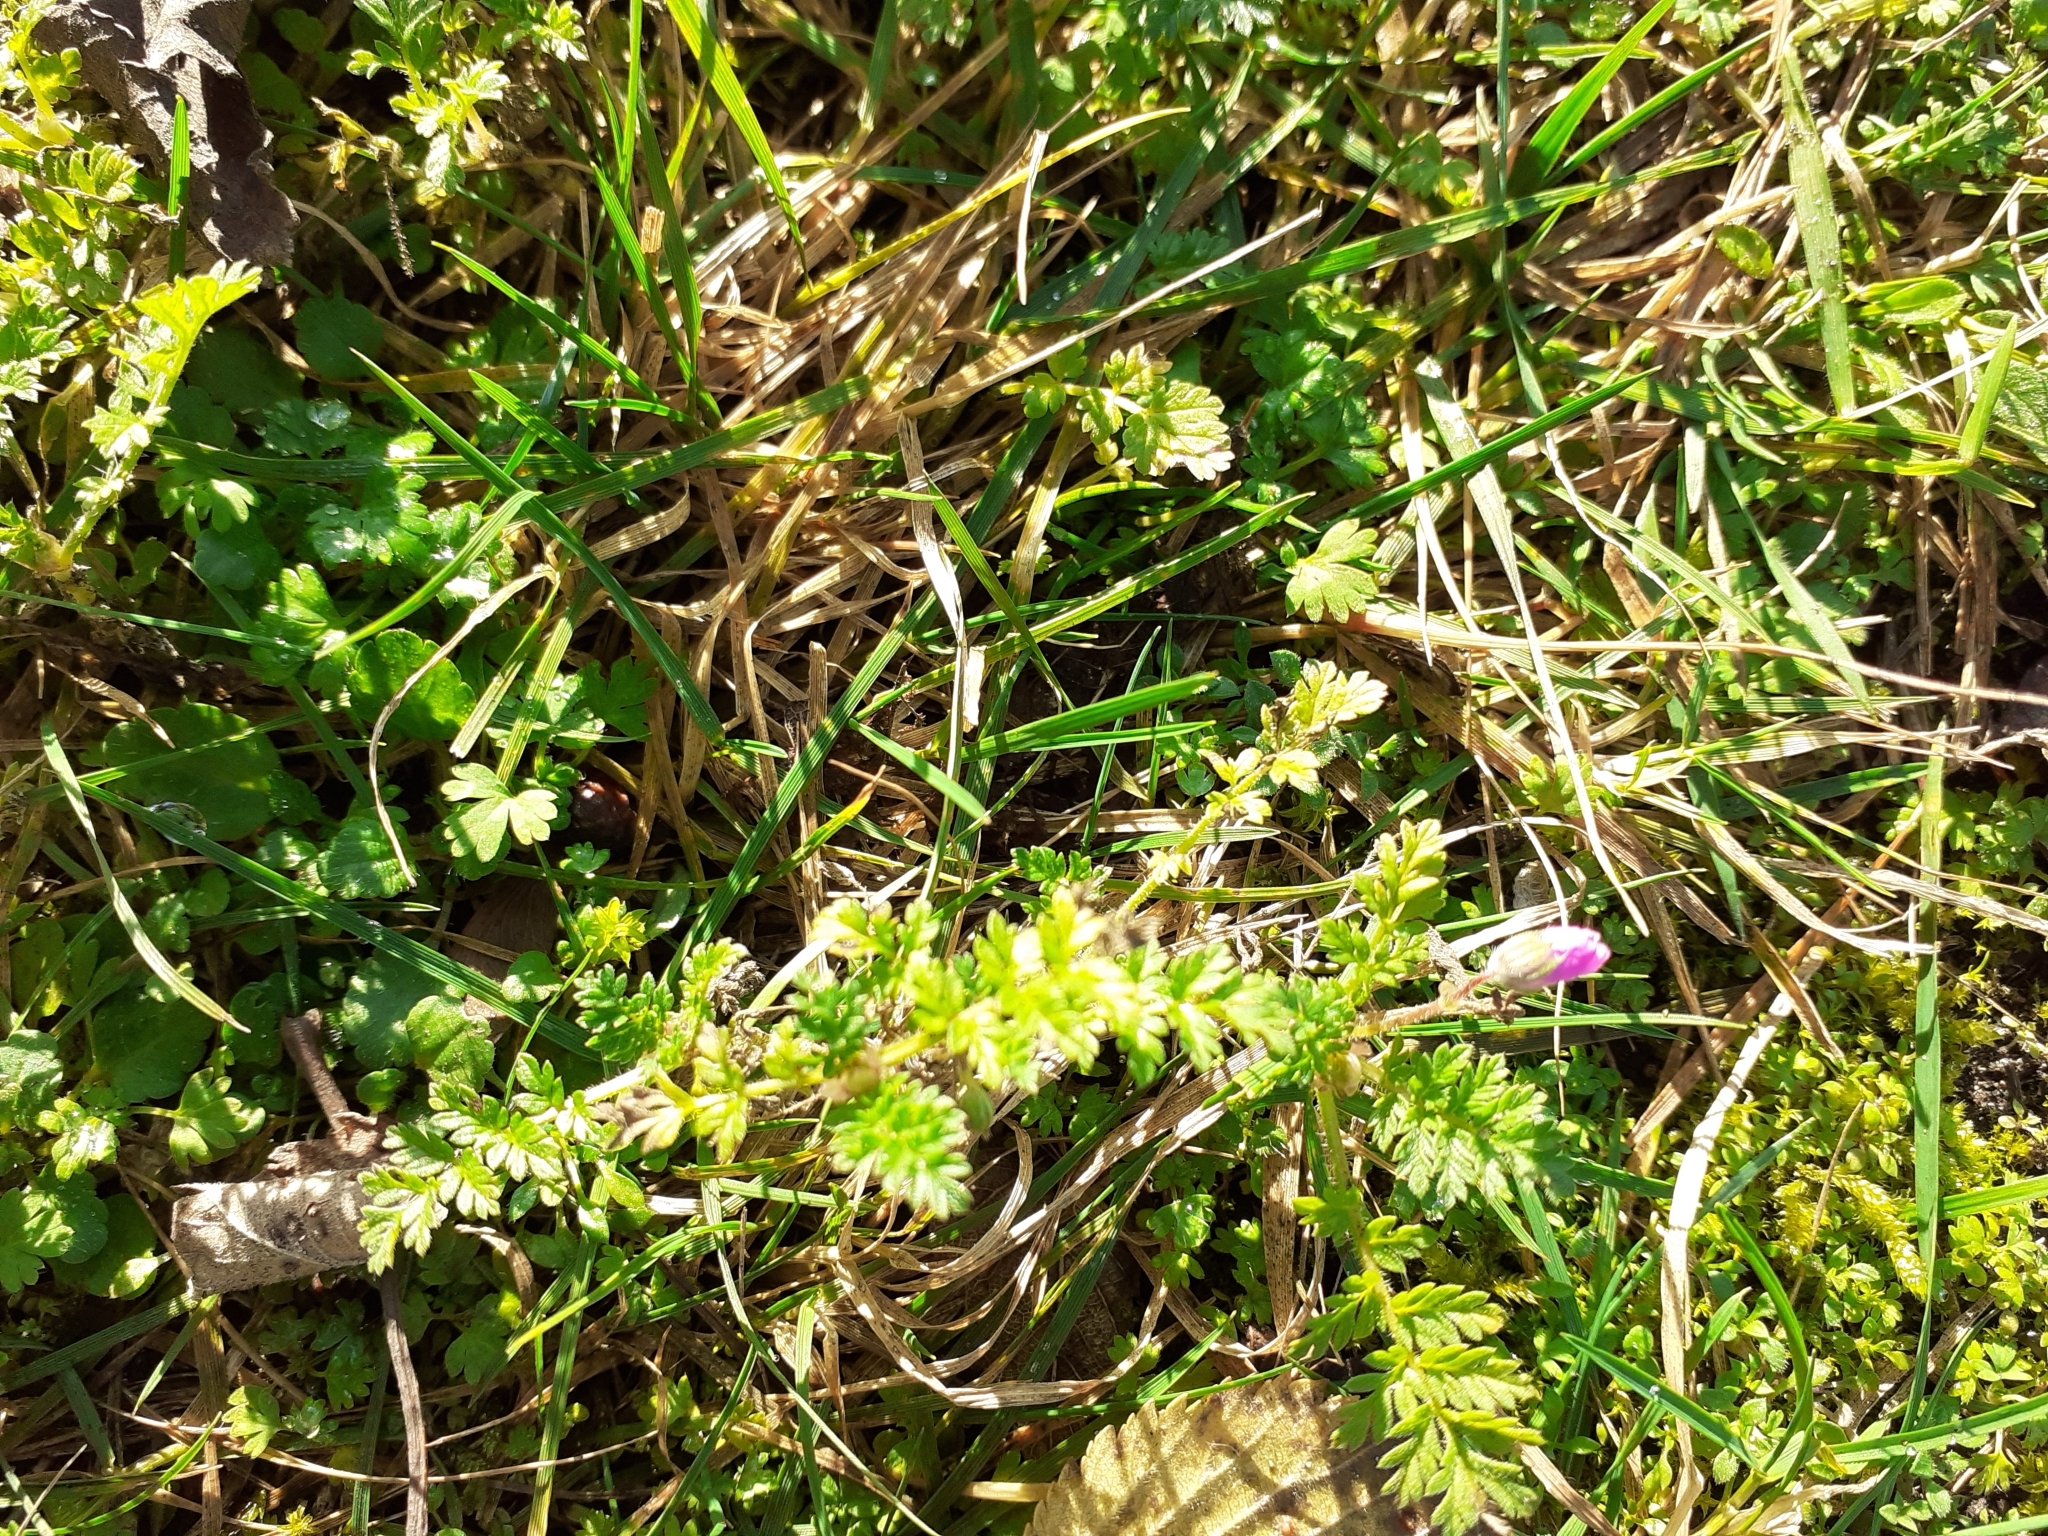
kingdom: Plantae
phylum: Tracheophyta
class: Magnoliopsida
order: Geraniales
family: Geraniaceae
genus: Erodium
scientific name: Erodium cicutarium
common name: Common stork's-bill
